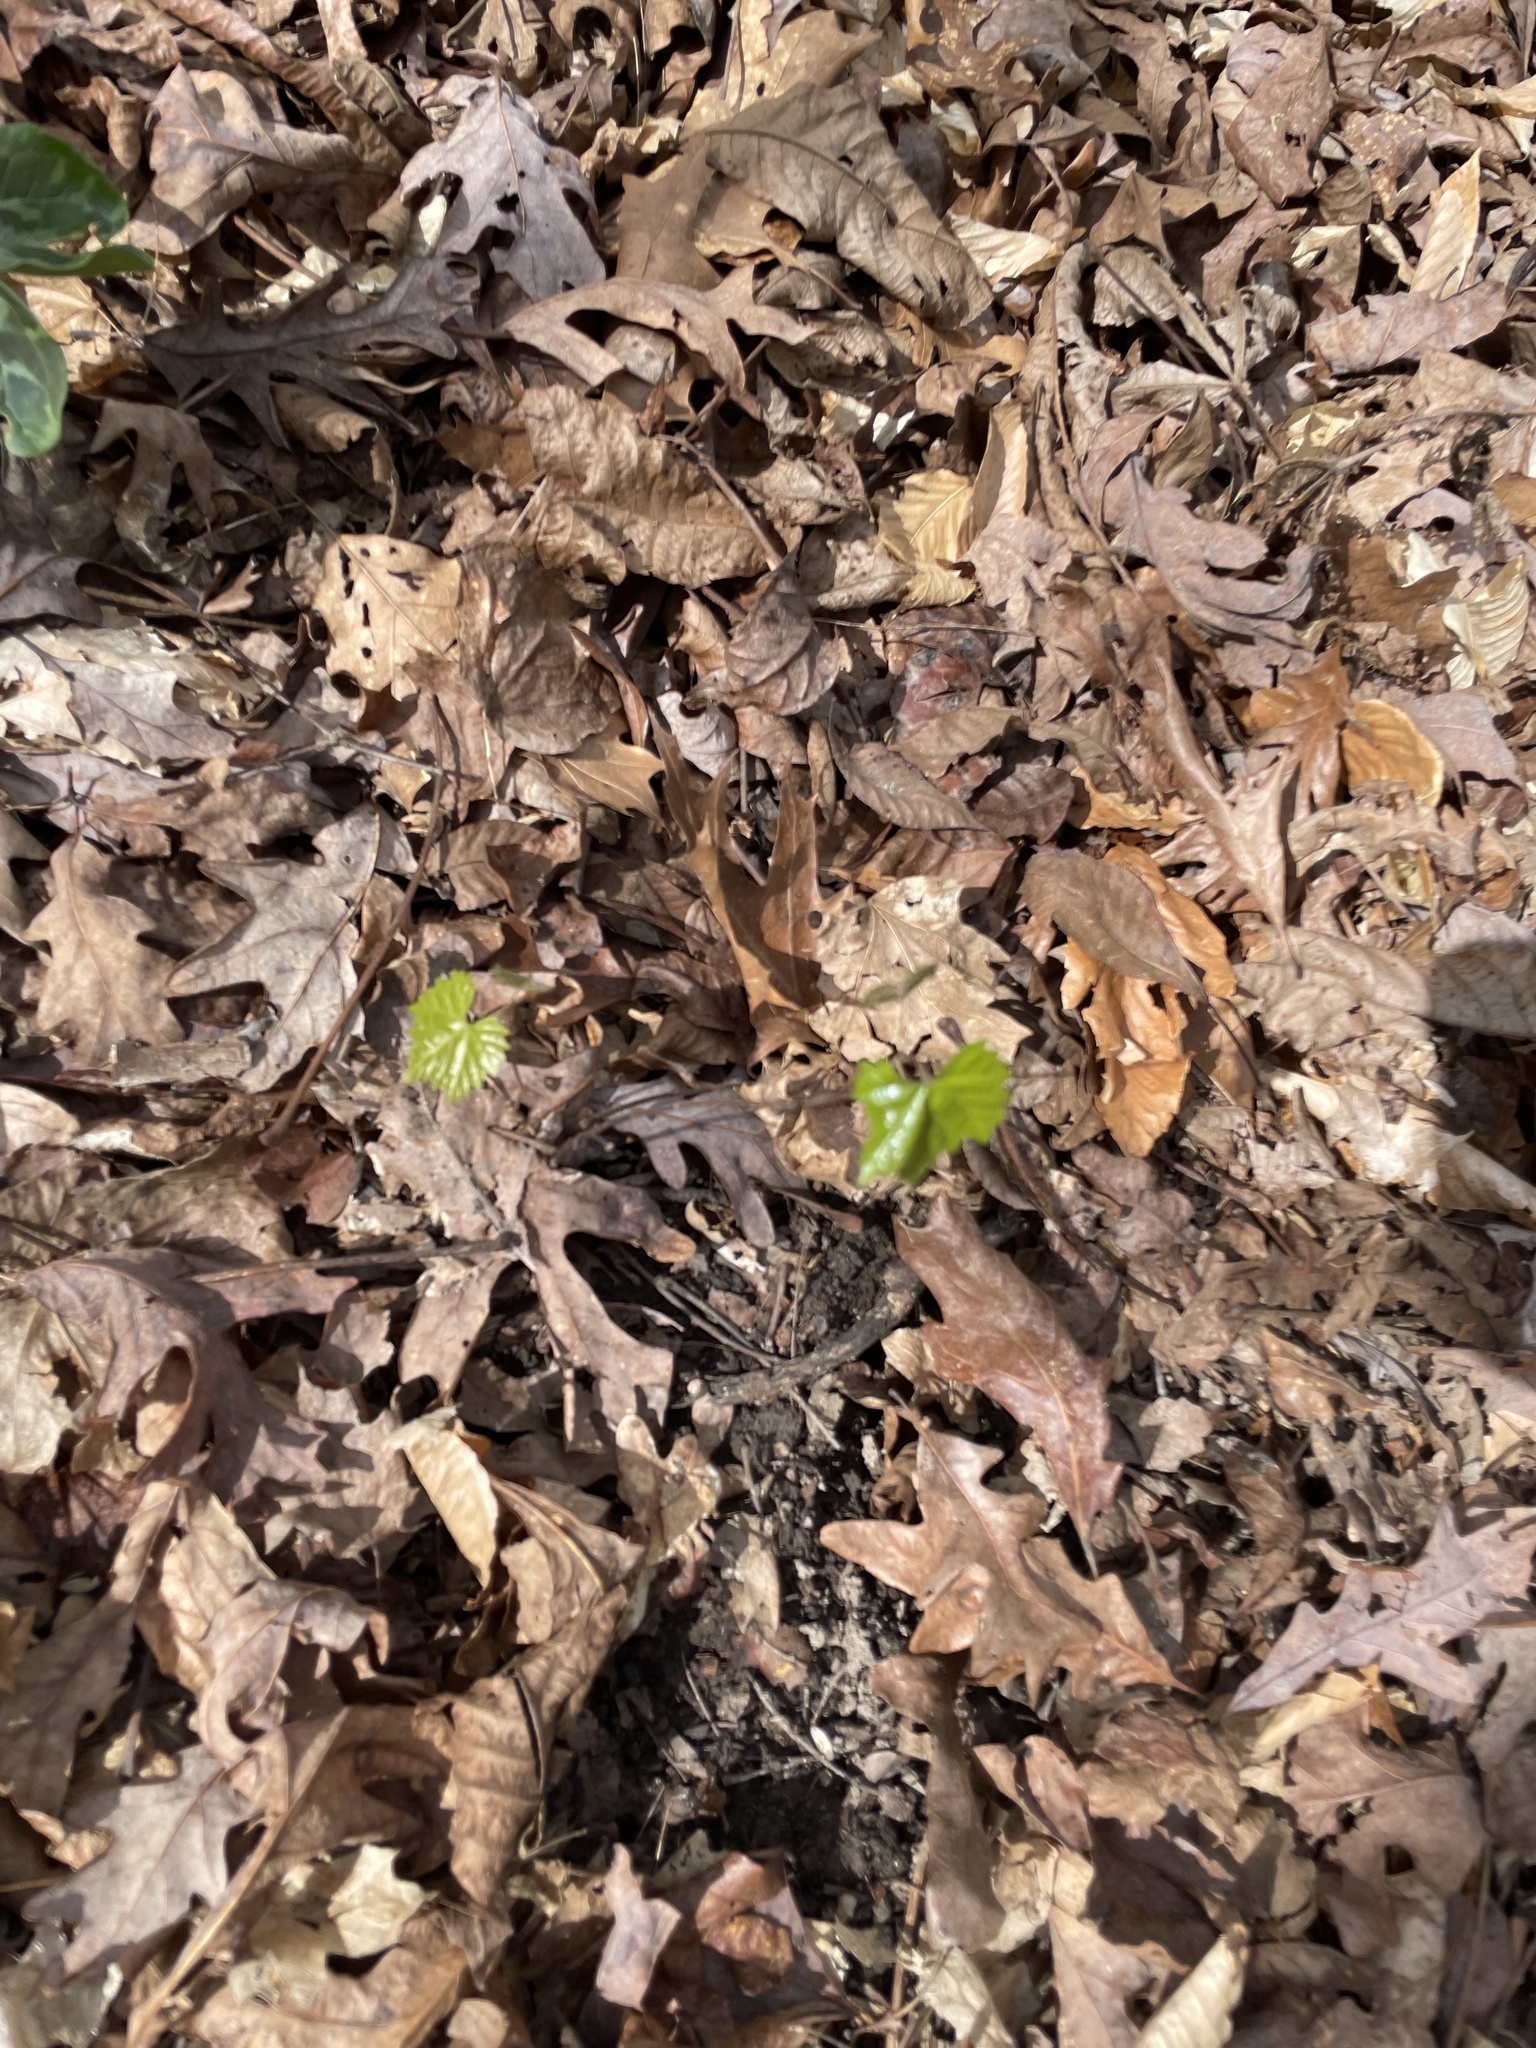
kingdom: Plantae
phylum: Tracheophyta
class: Magnoliopsida
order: Vitales
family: Vitaceae
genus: Vitis
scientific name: Vitis rotundifolia
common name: Muscadine grape
